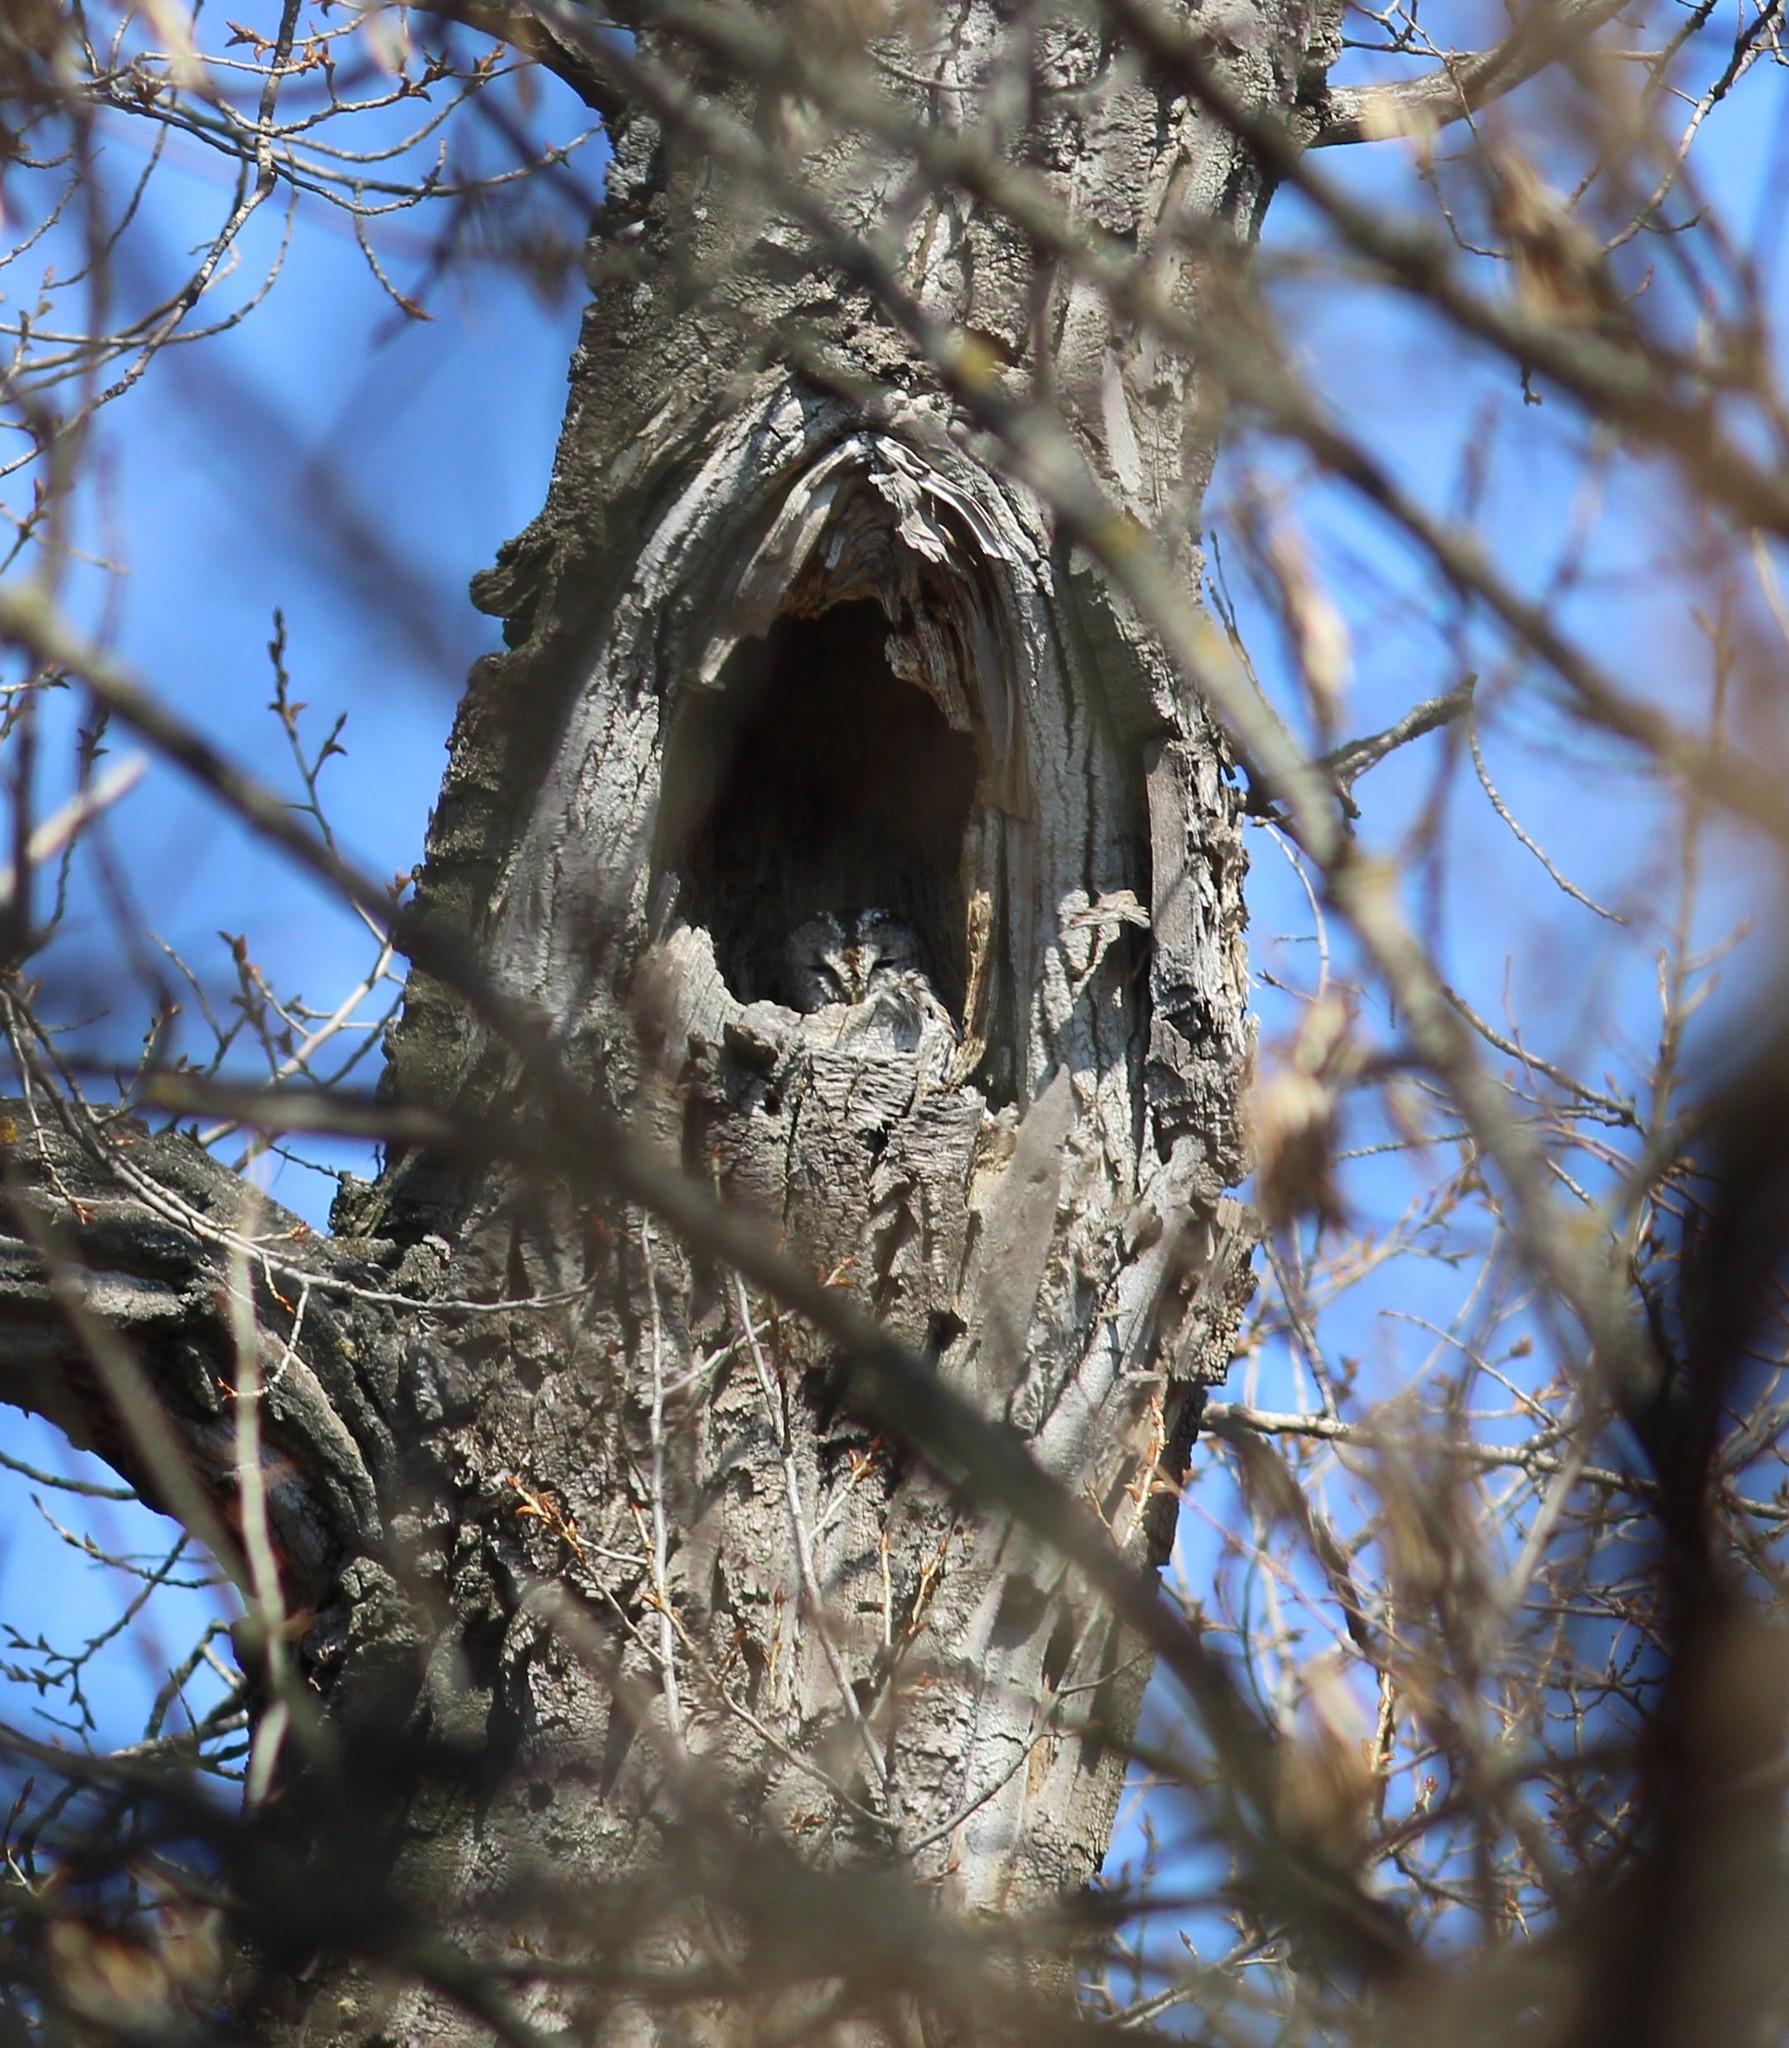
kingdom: Animalia
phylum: Chordata
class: Aves
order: Strigiformes
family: Strigidae
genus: Strix
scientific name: Strix aluco
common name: Tawny owl
